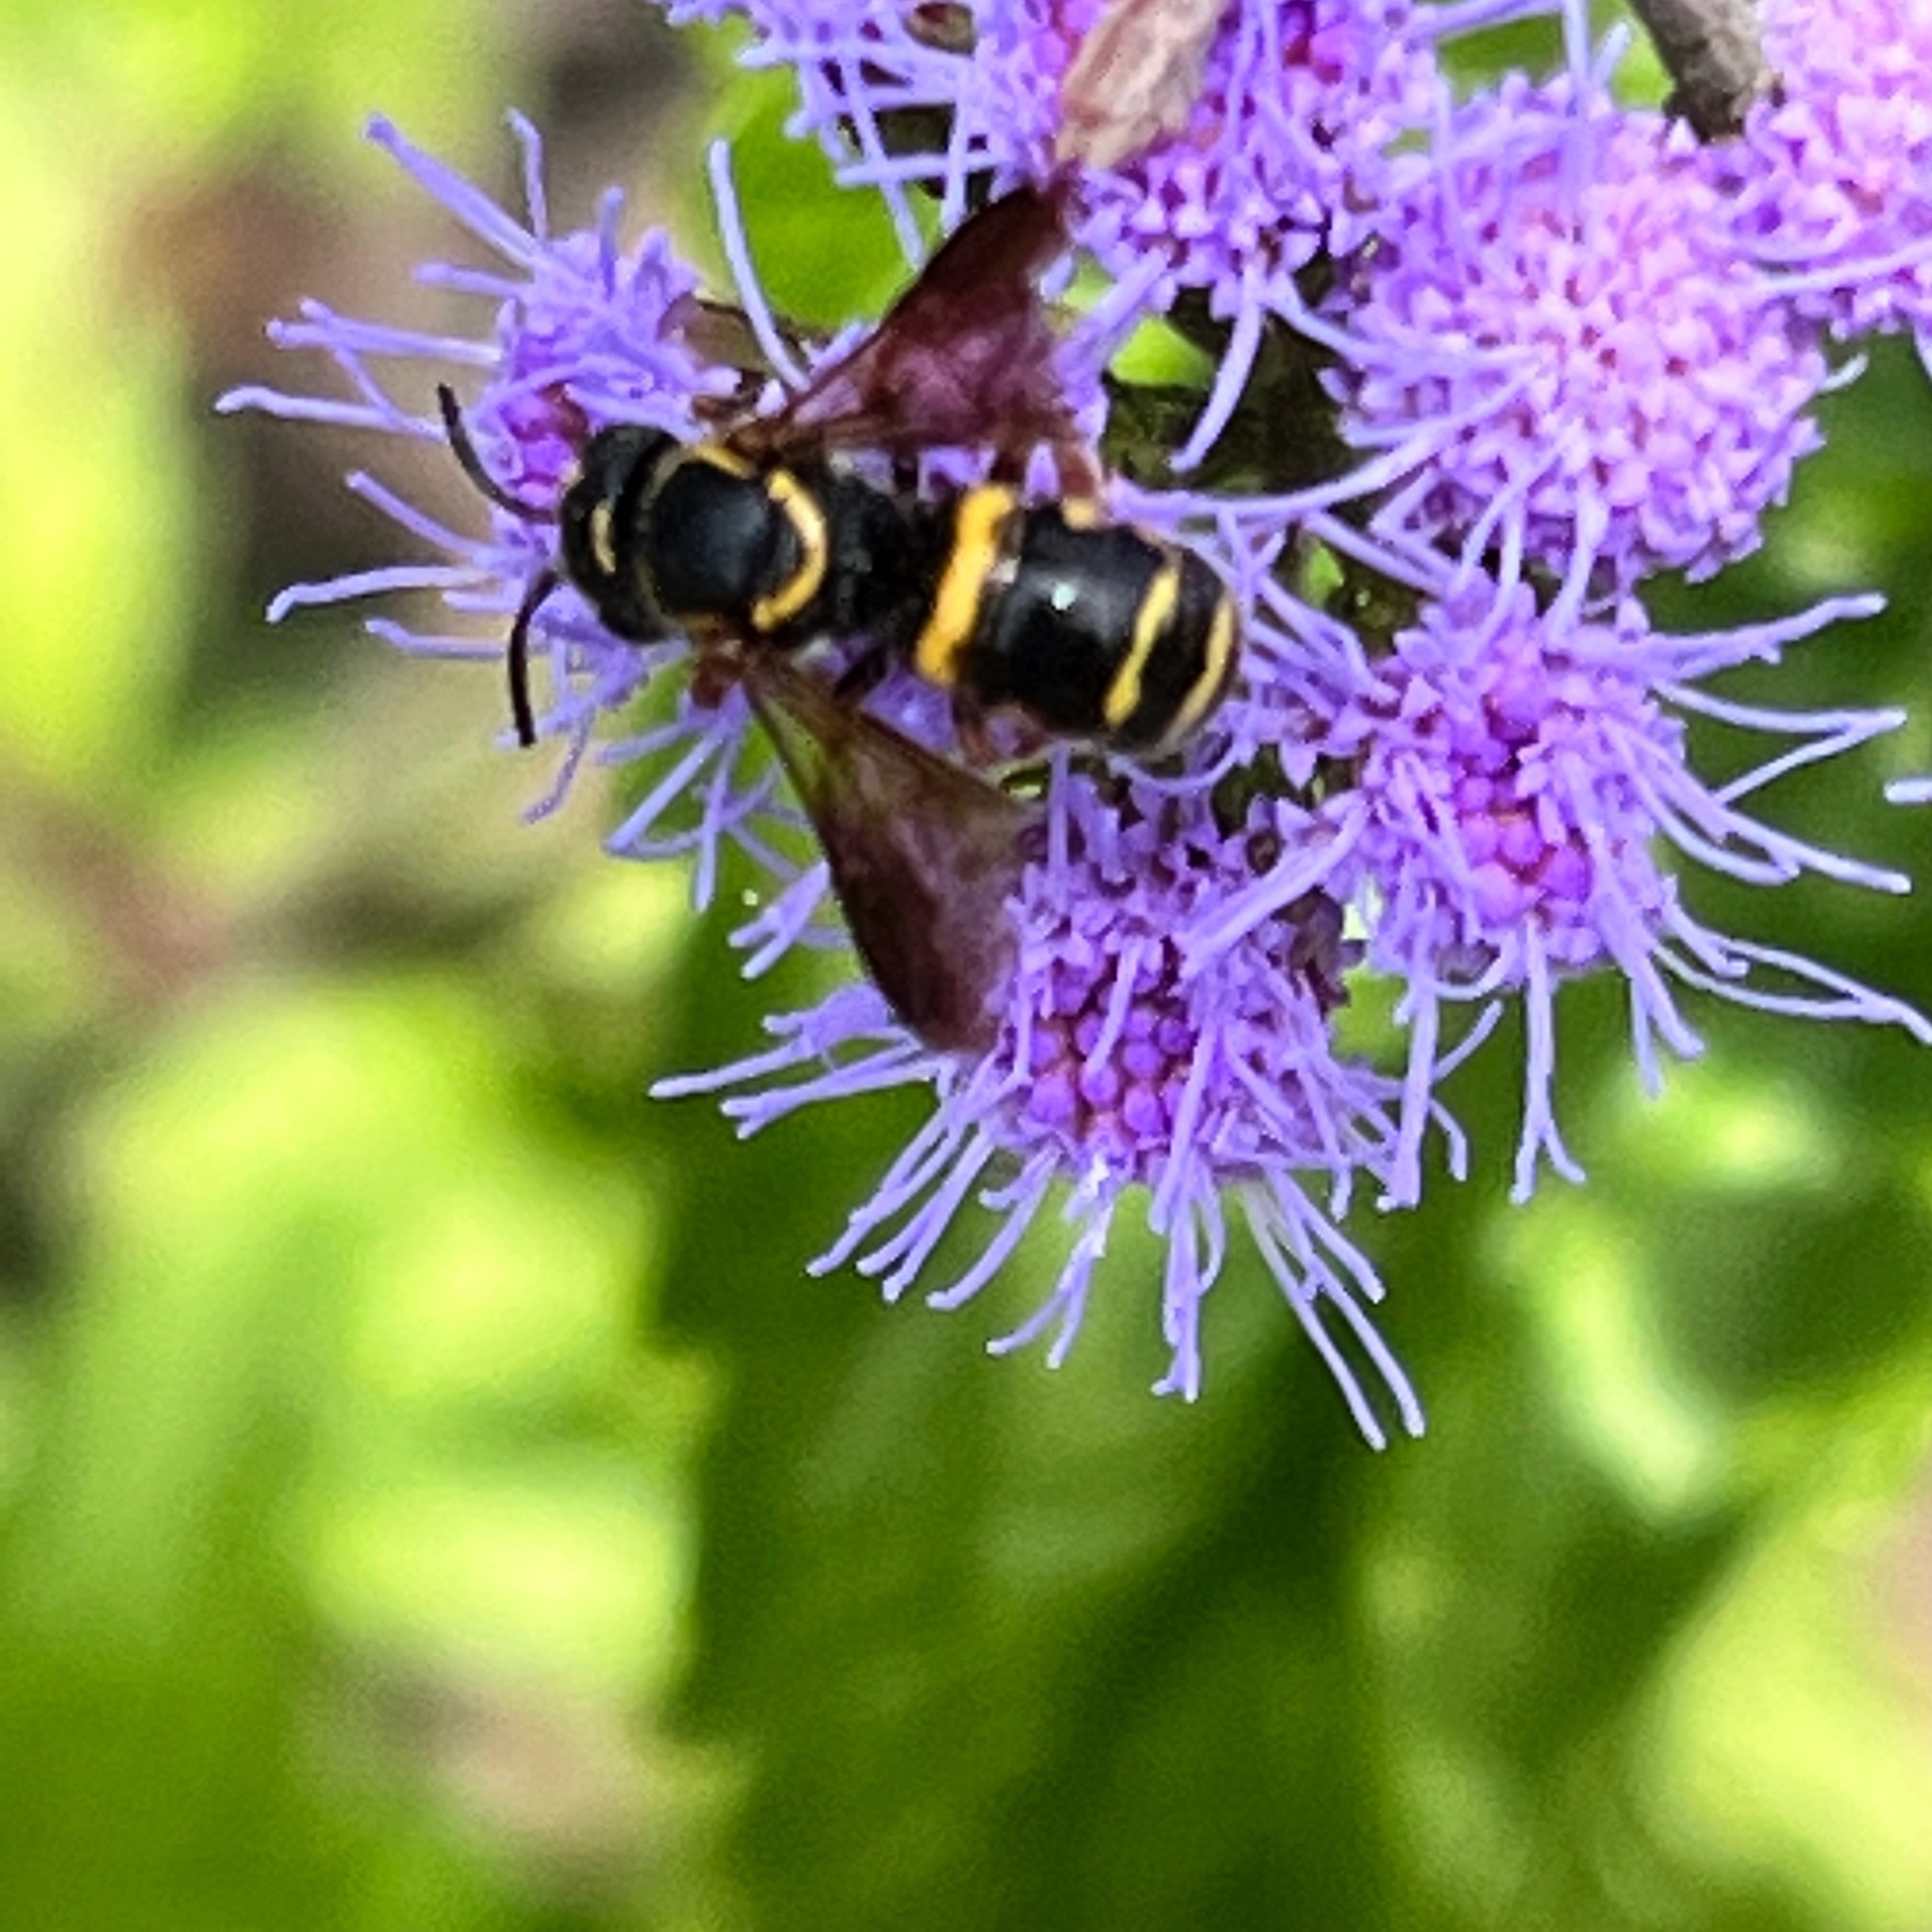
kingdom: Animalia
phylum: Arthropoda
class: Insecta
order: Hymenoptera
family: Megachilidae
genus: Stelis
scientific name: Stelis louisae
